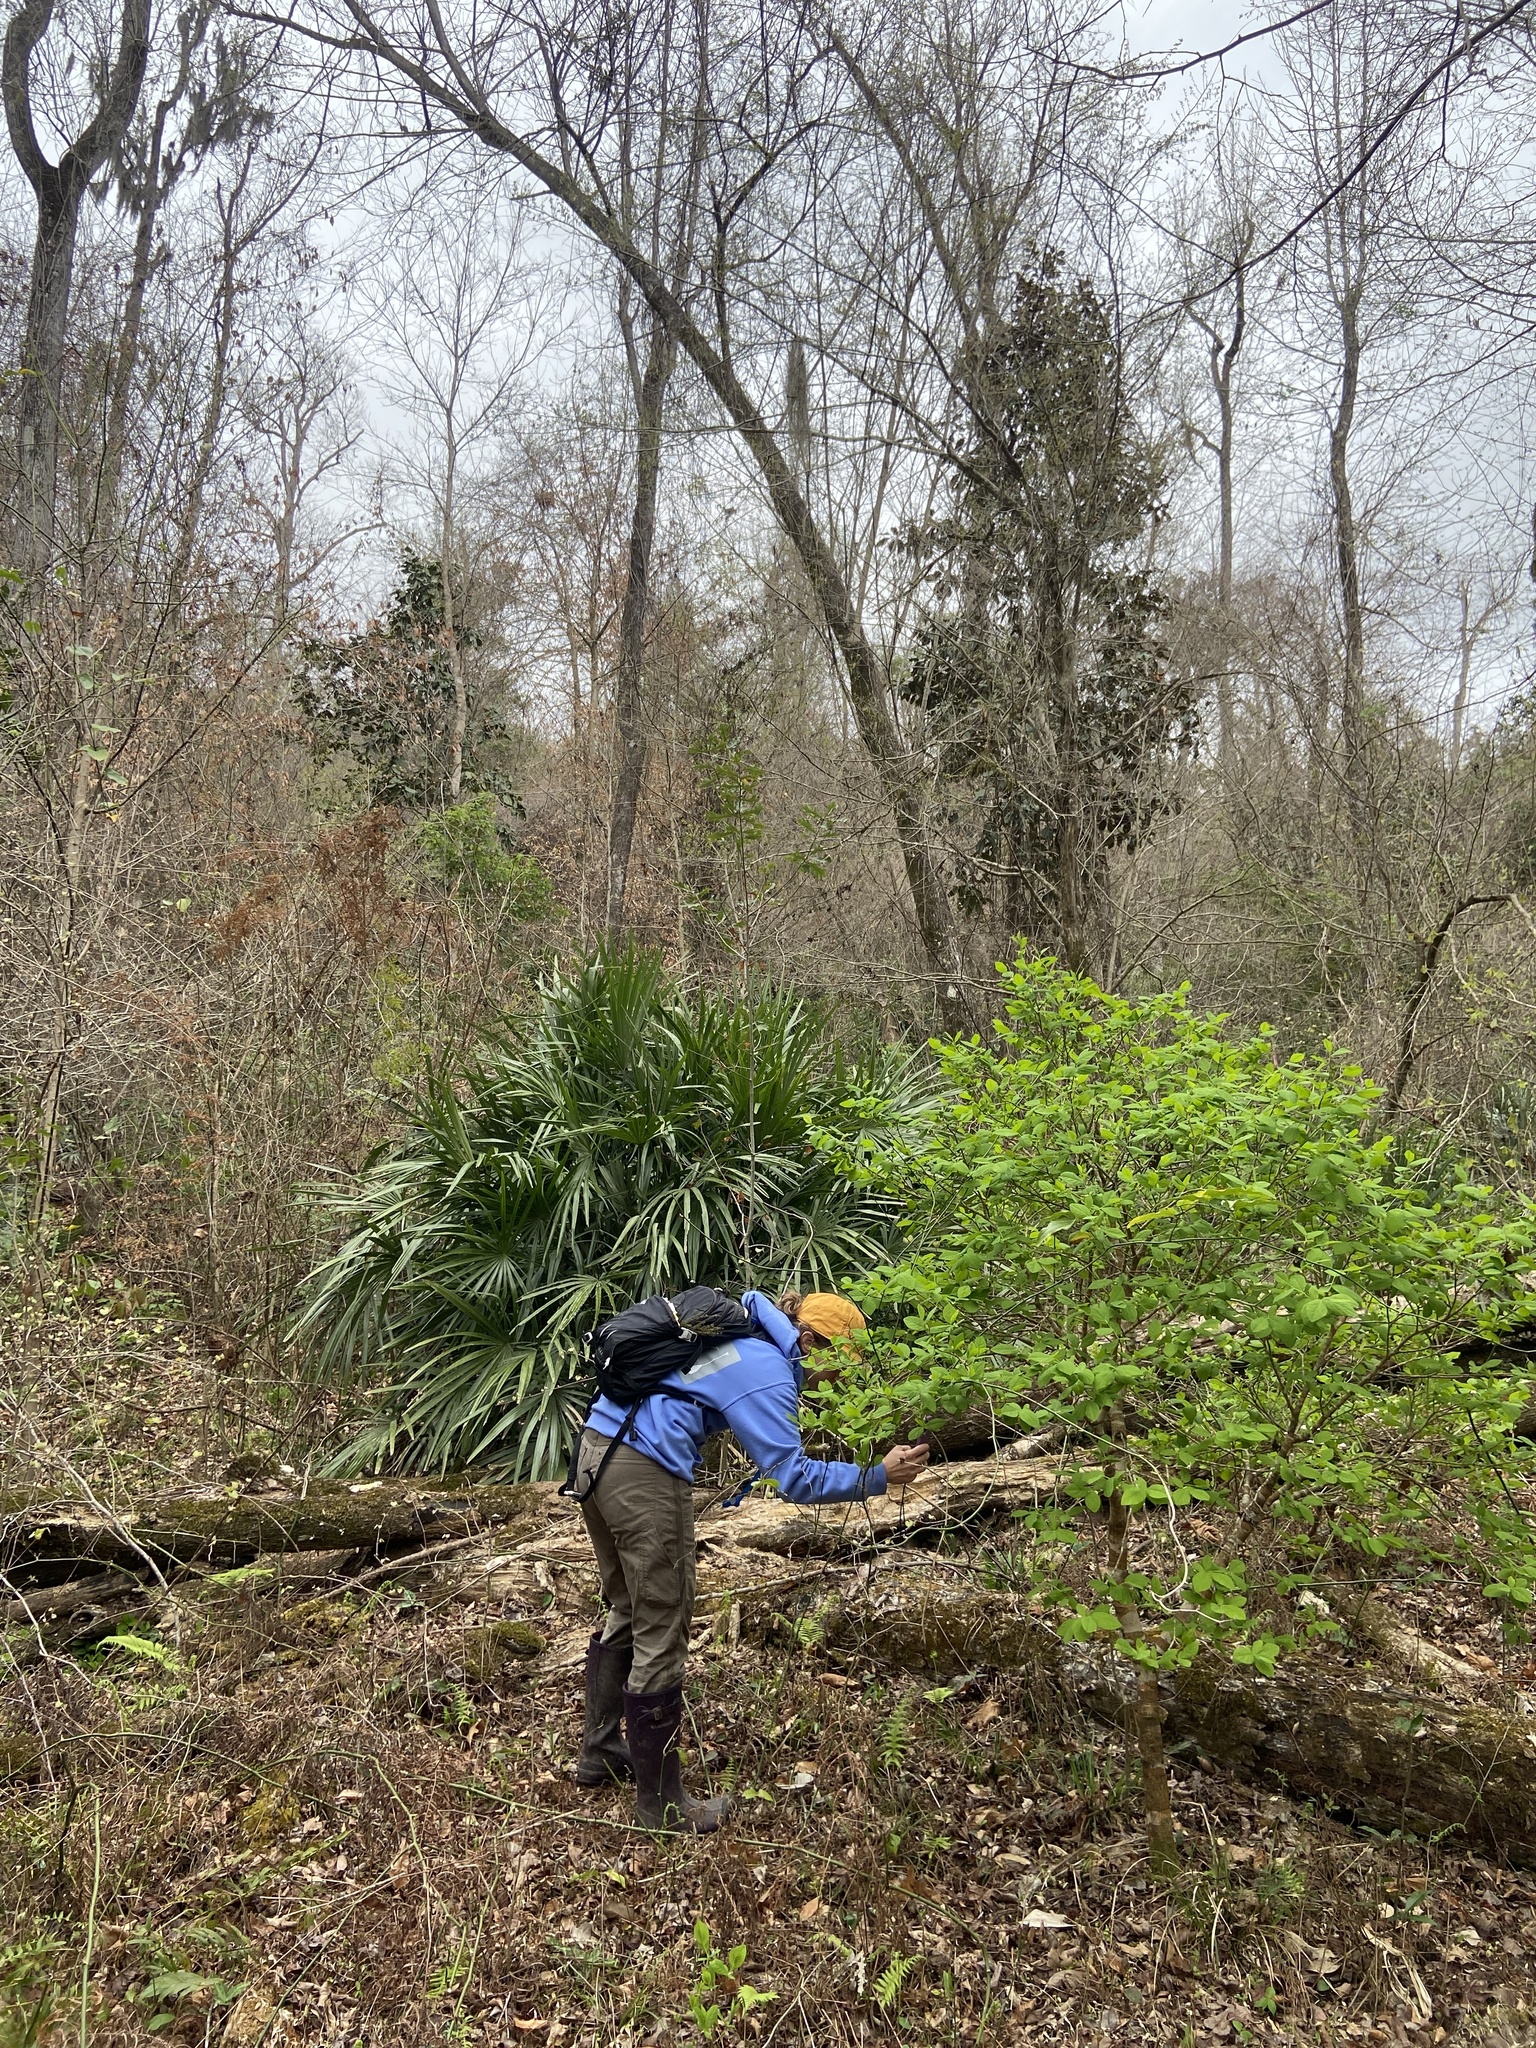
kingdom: Plantae
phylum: Tracheophyta
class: Magnoliopsida
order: Malvales
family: Thymelaeaceae
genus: Dirca
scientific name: Dirca palustris
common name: Leatherwood
